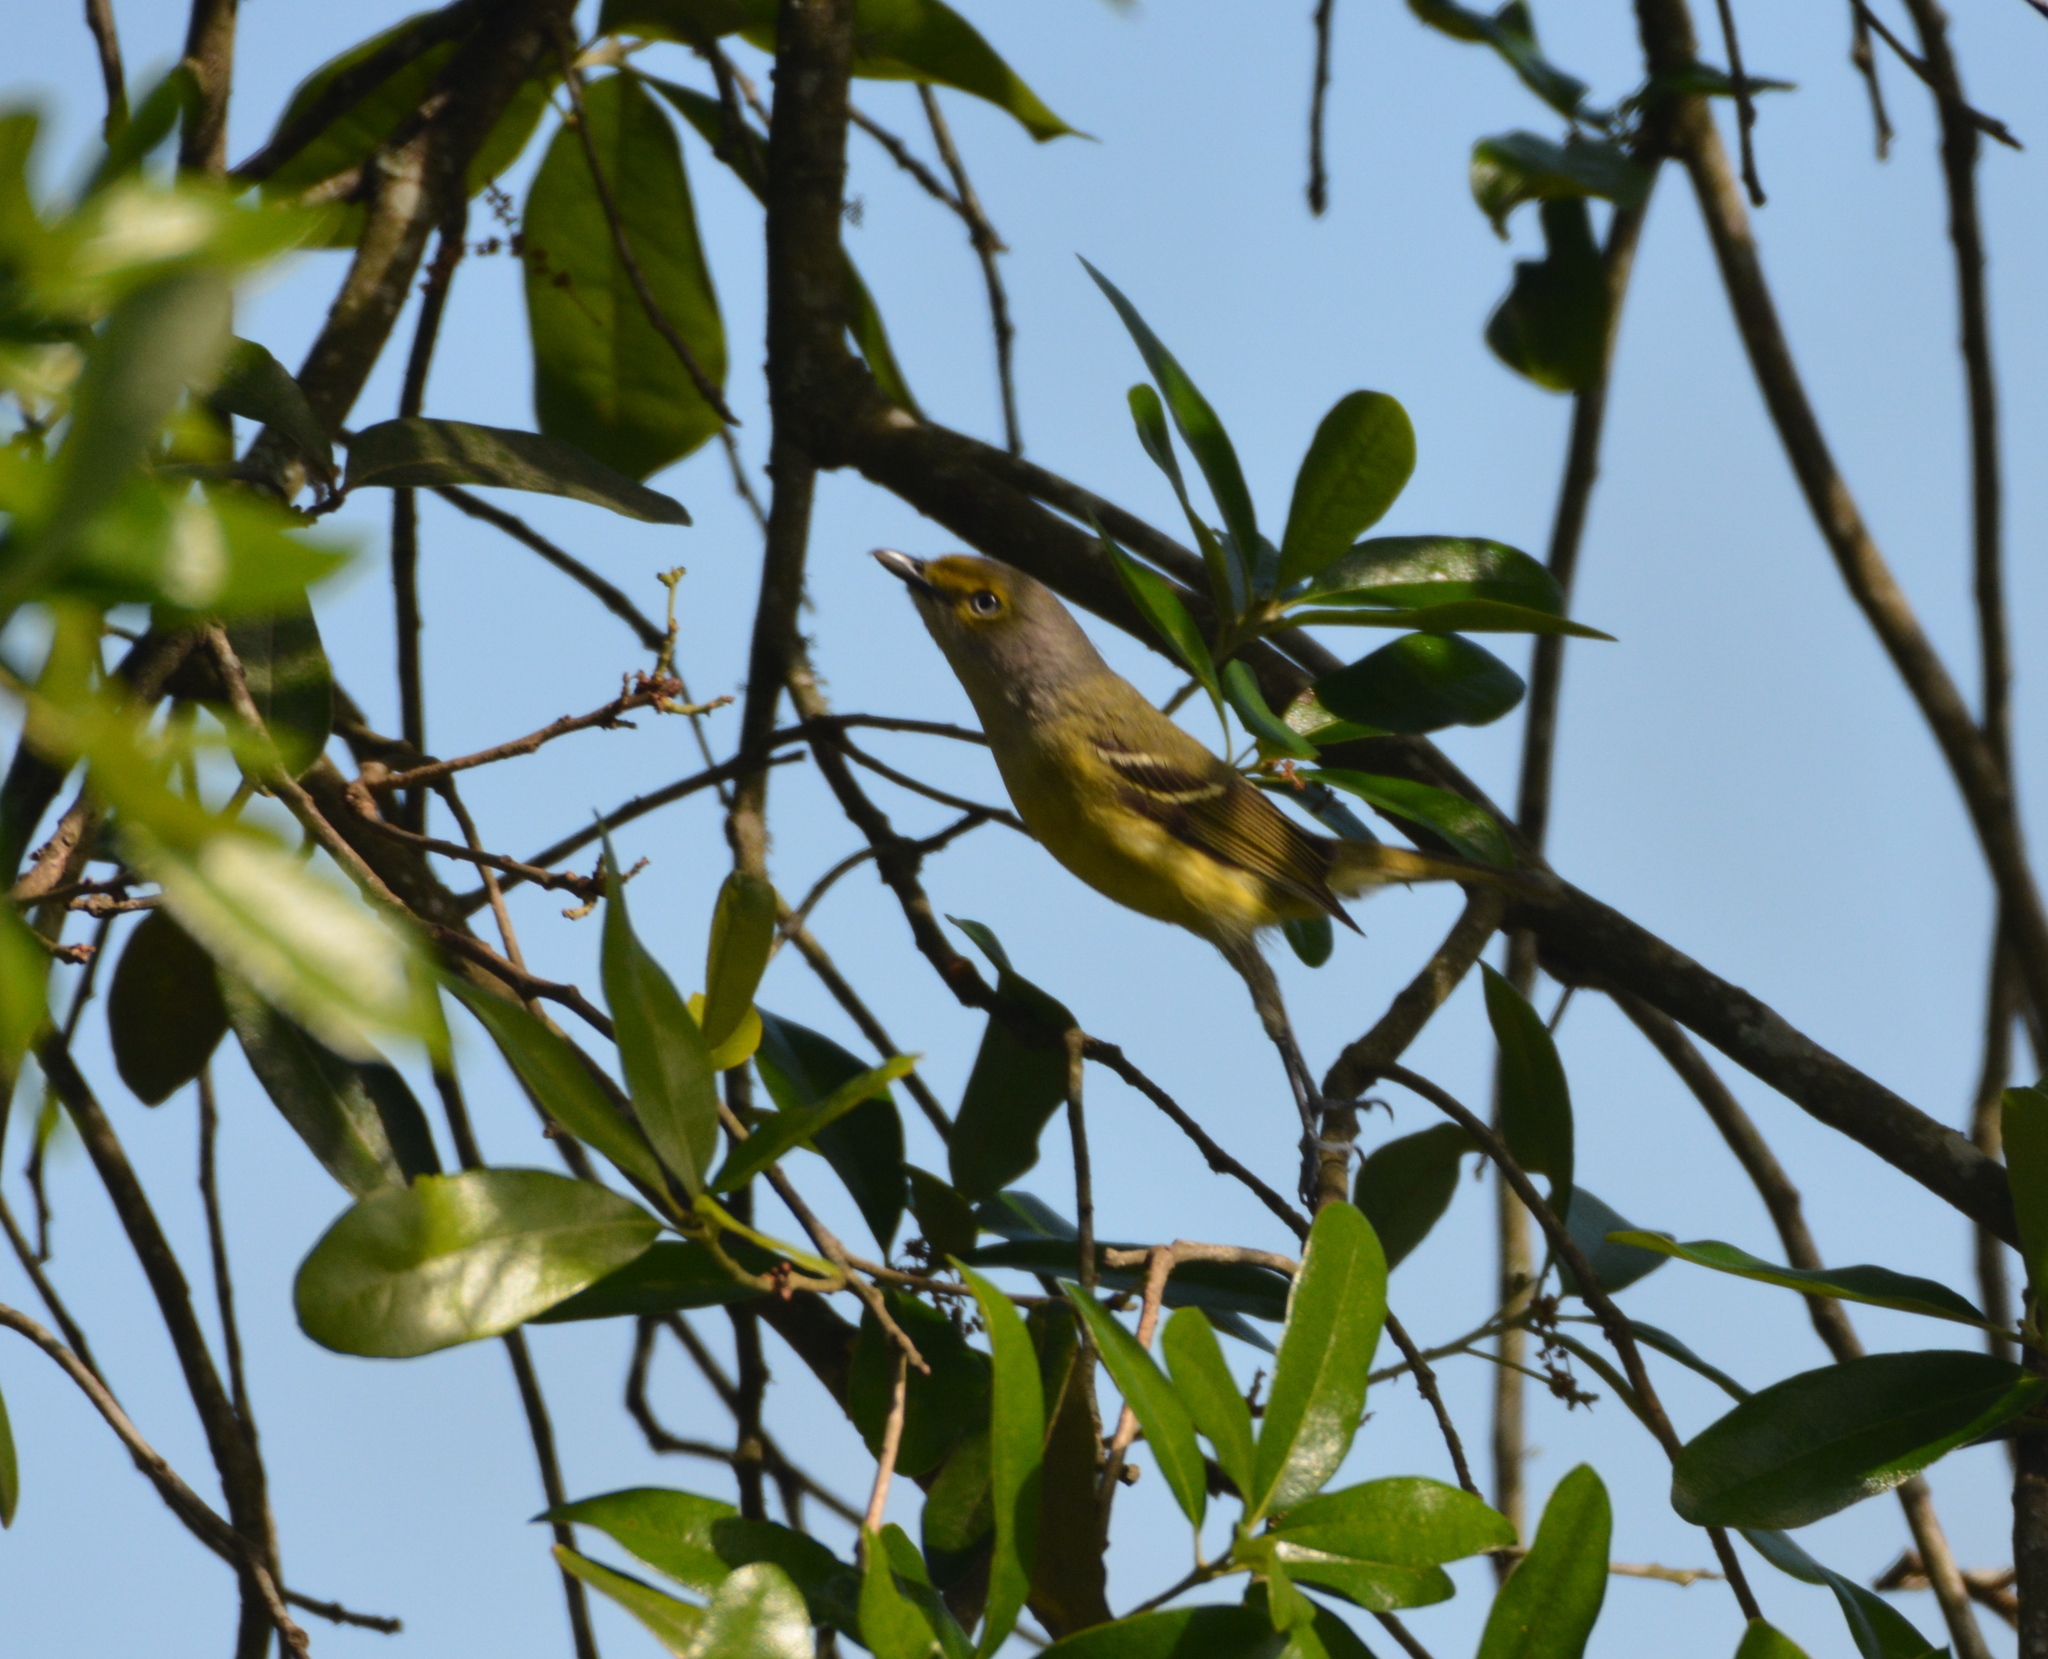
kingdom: Animalia
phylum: Chordata
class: Aves
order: Passeriformes
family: Vireonidae
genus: Vireo
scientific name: Vireo griseus
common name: White-eyed vireo
